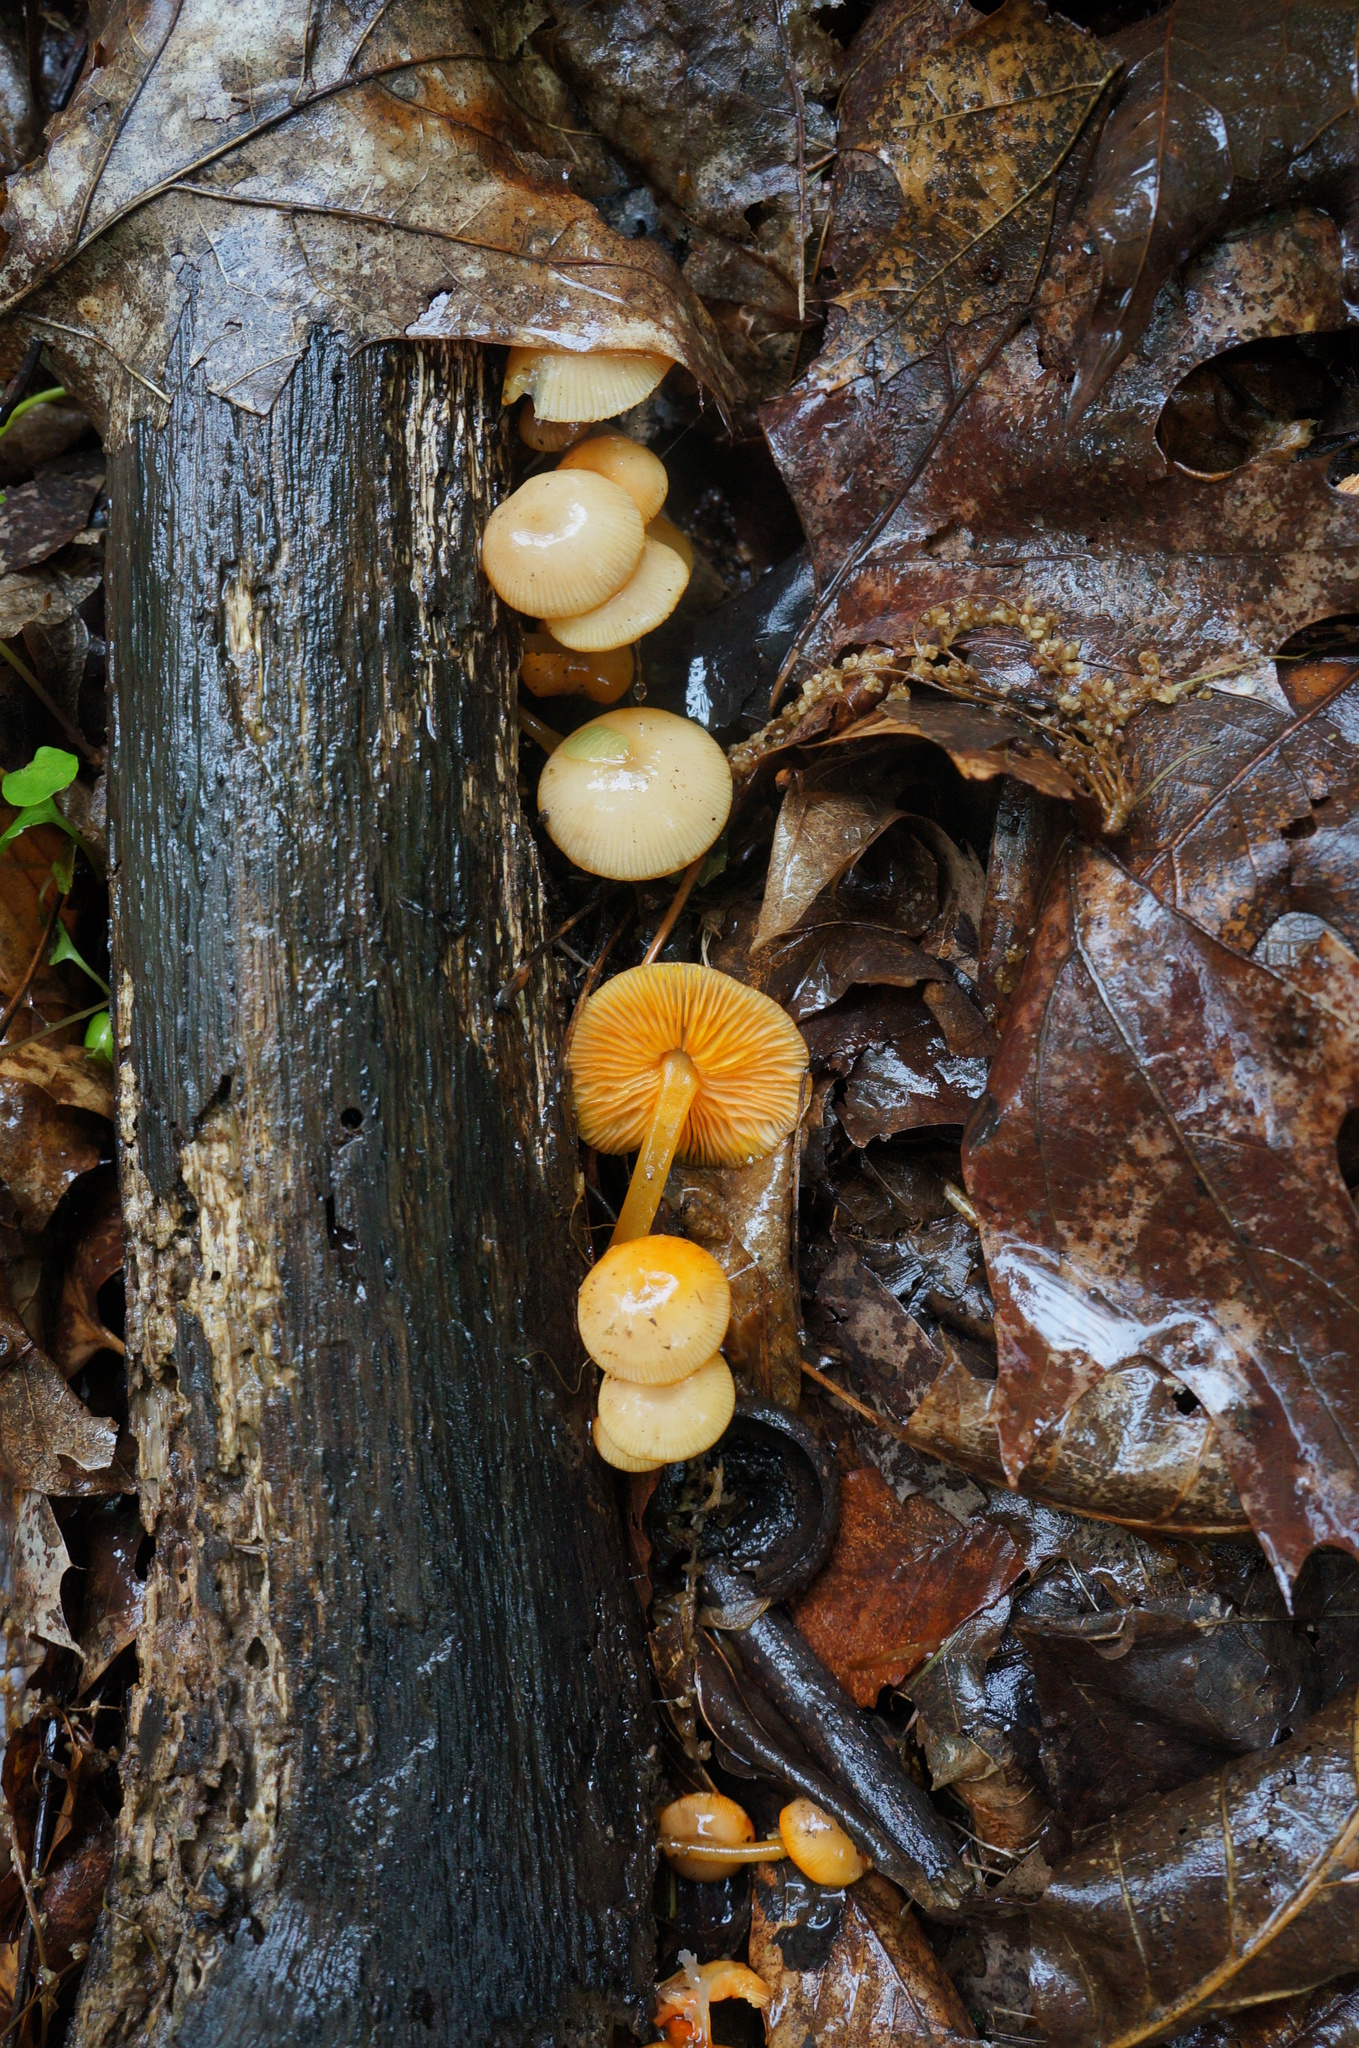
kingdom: Fungi
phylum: Basidiomycota
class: Agaricomycetes
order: Agaricales
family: Mycenaceae
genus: Mycena
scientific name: Mycena leaiana
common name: Orange mycena
